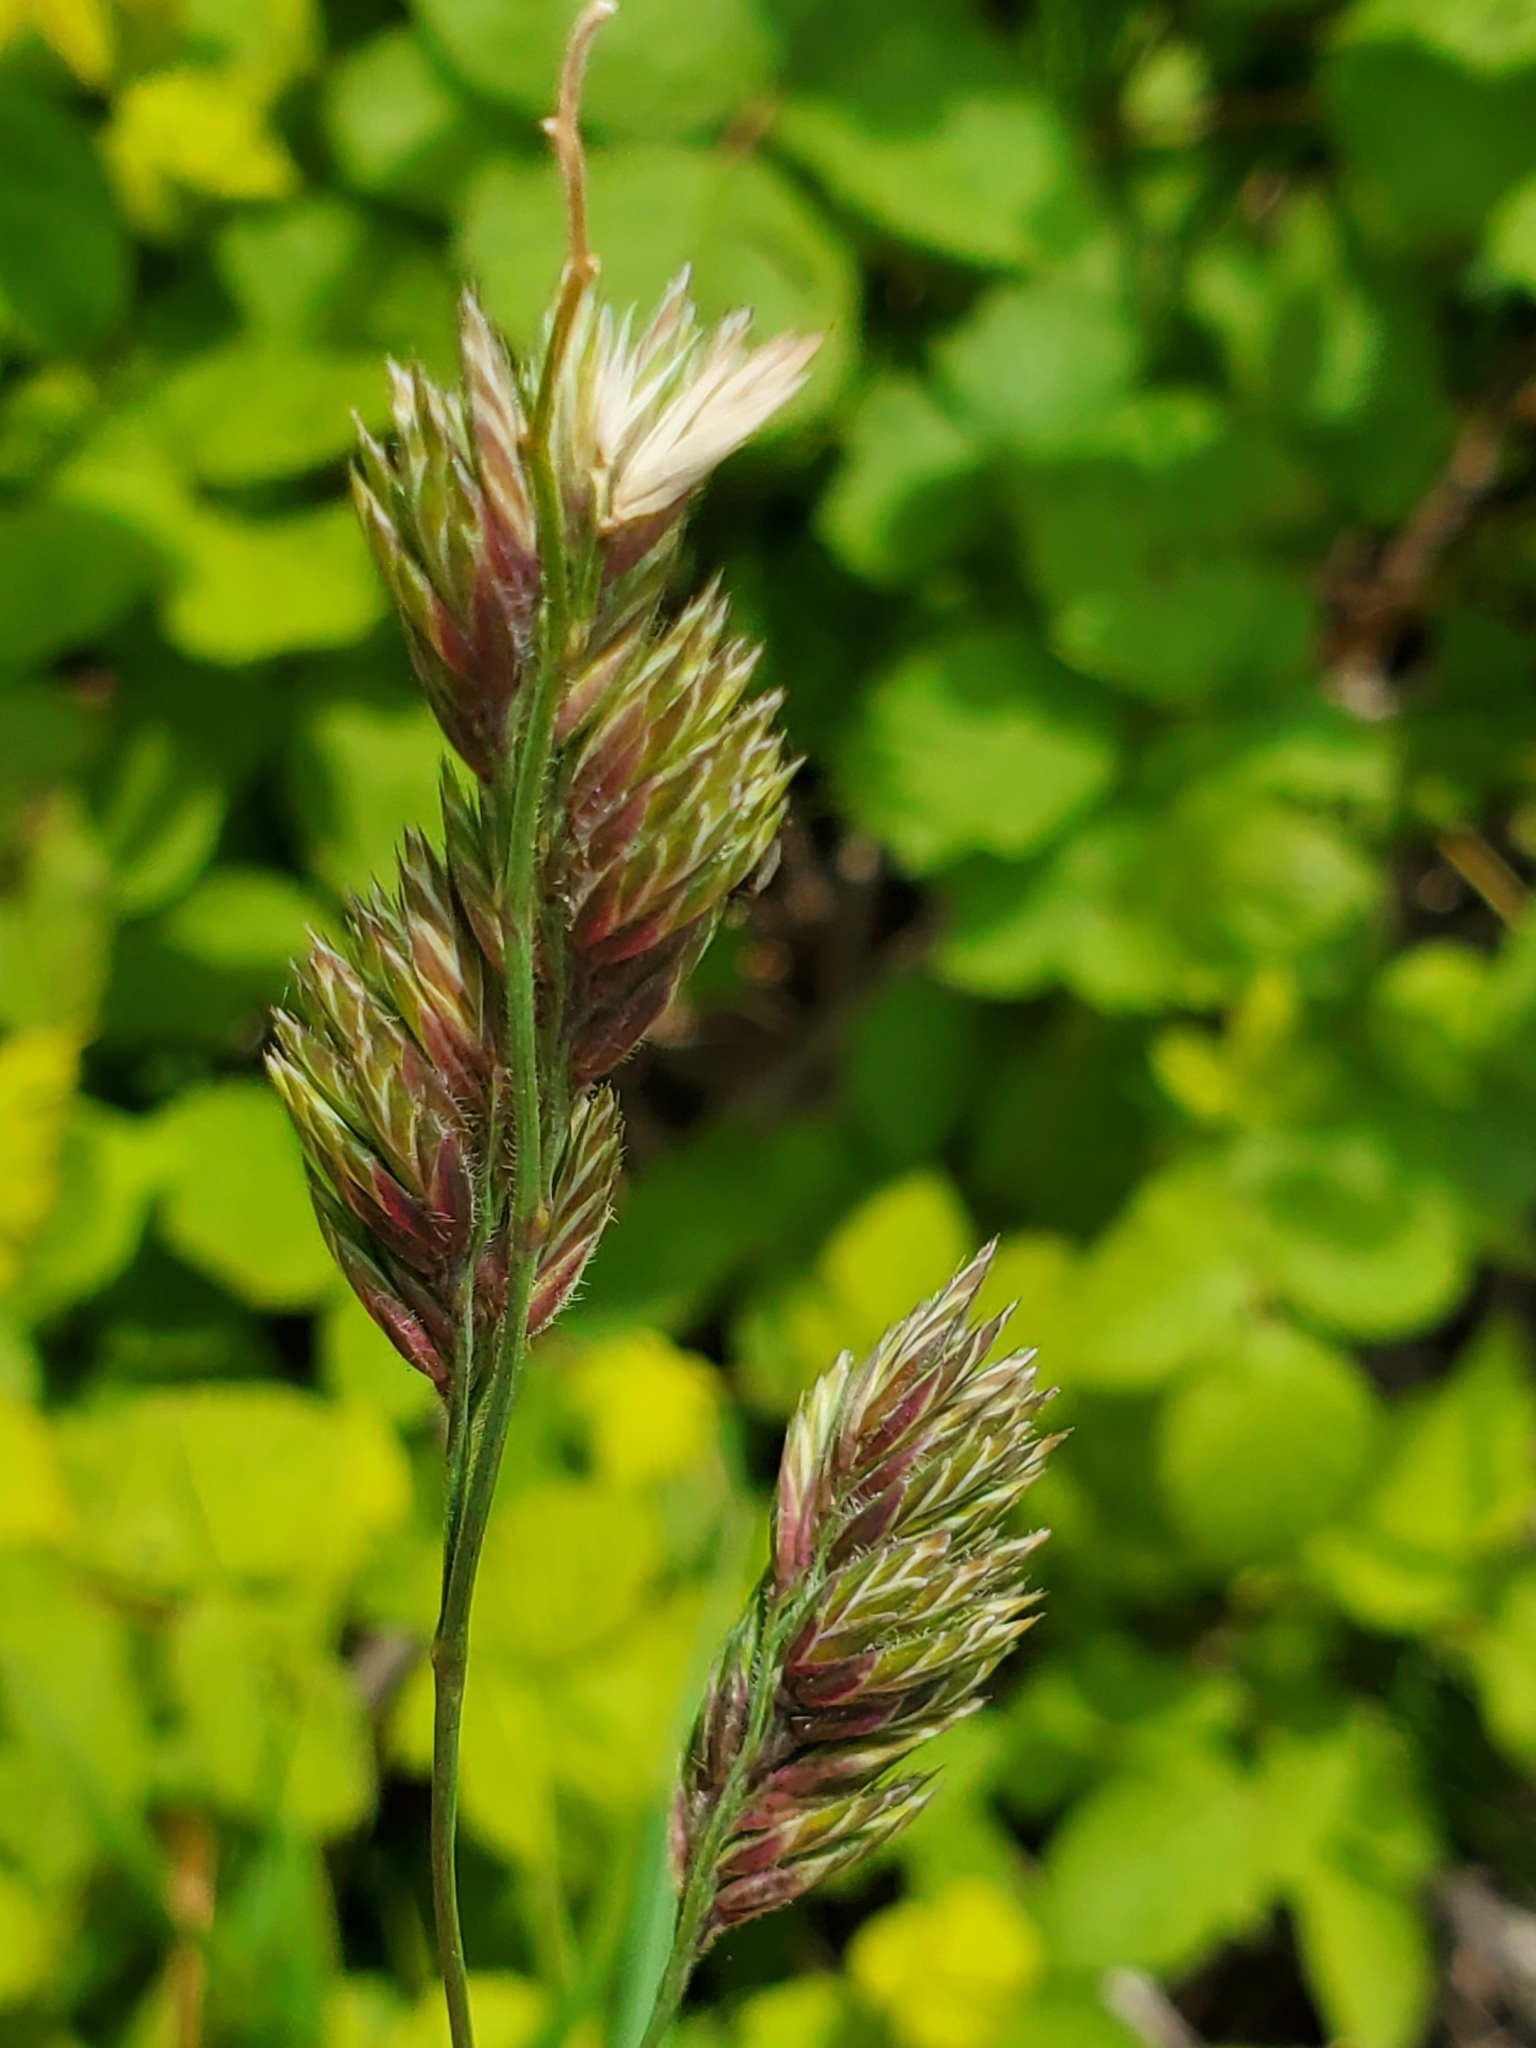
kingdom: Plantae
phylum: Tracheophyta
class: Liliopsida
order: Poales
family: Poaceae
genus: Dactylis
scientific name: Dactylis glomerata
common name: Orchardgrass
